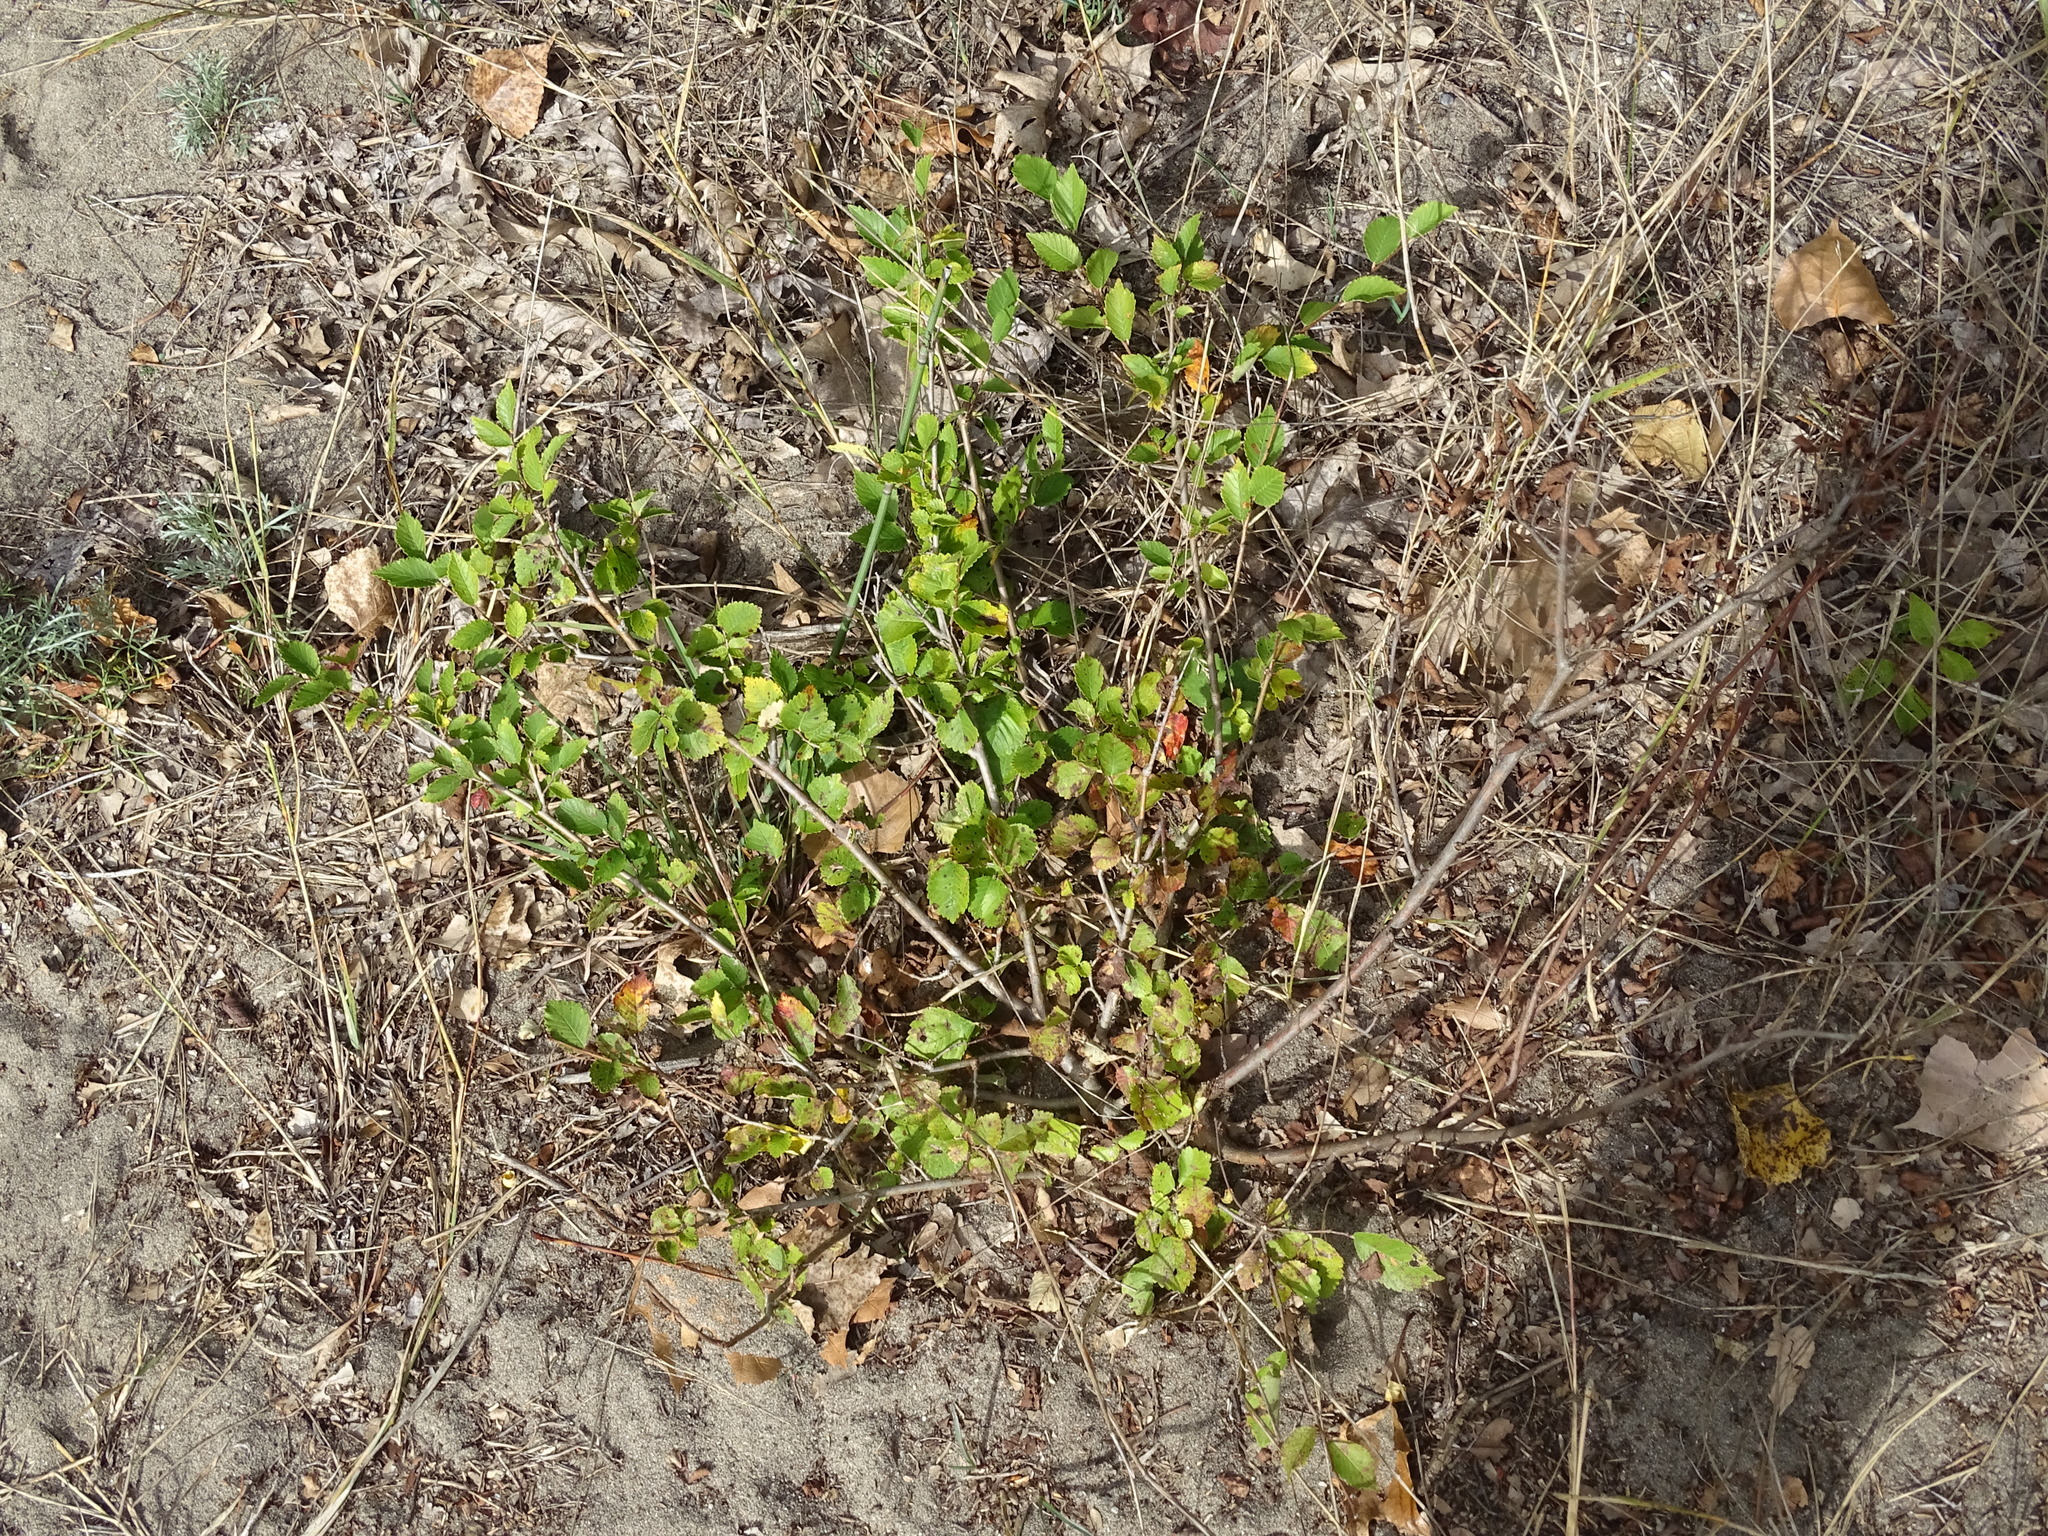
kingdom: Plantae
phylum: Tracheophyta
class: Magnoliopsida
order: Rosales
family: Ulmaceae
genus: Ulmus
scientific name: Ulmus pumila
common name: Siberian elm
